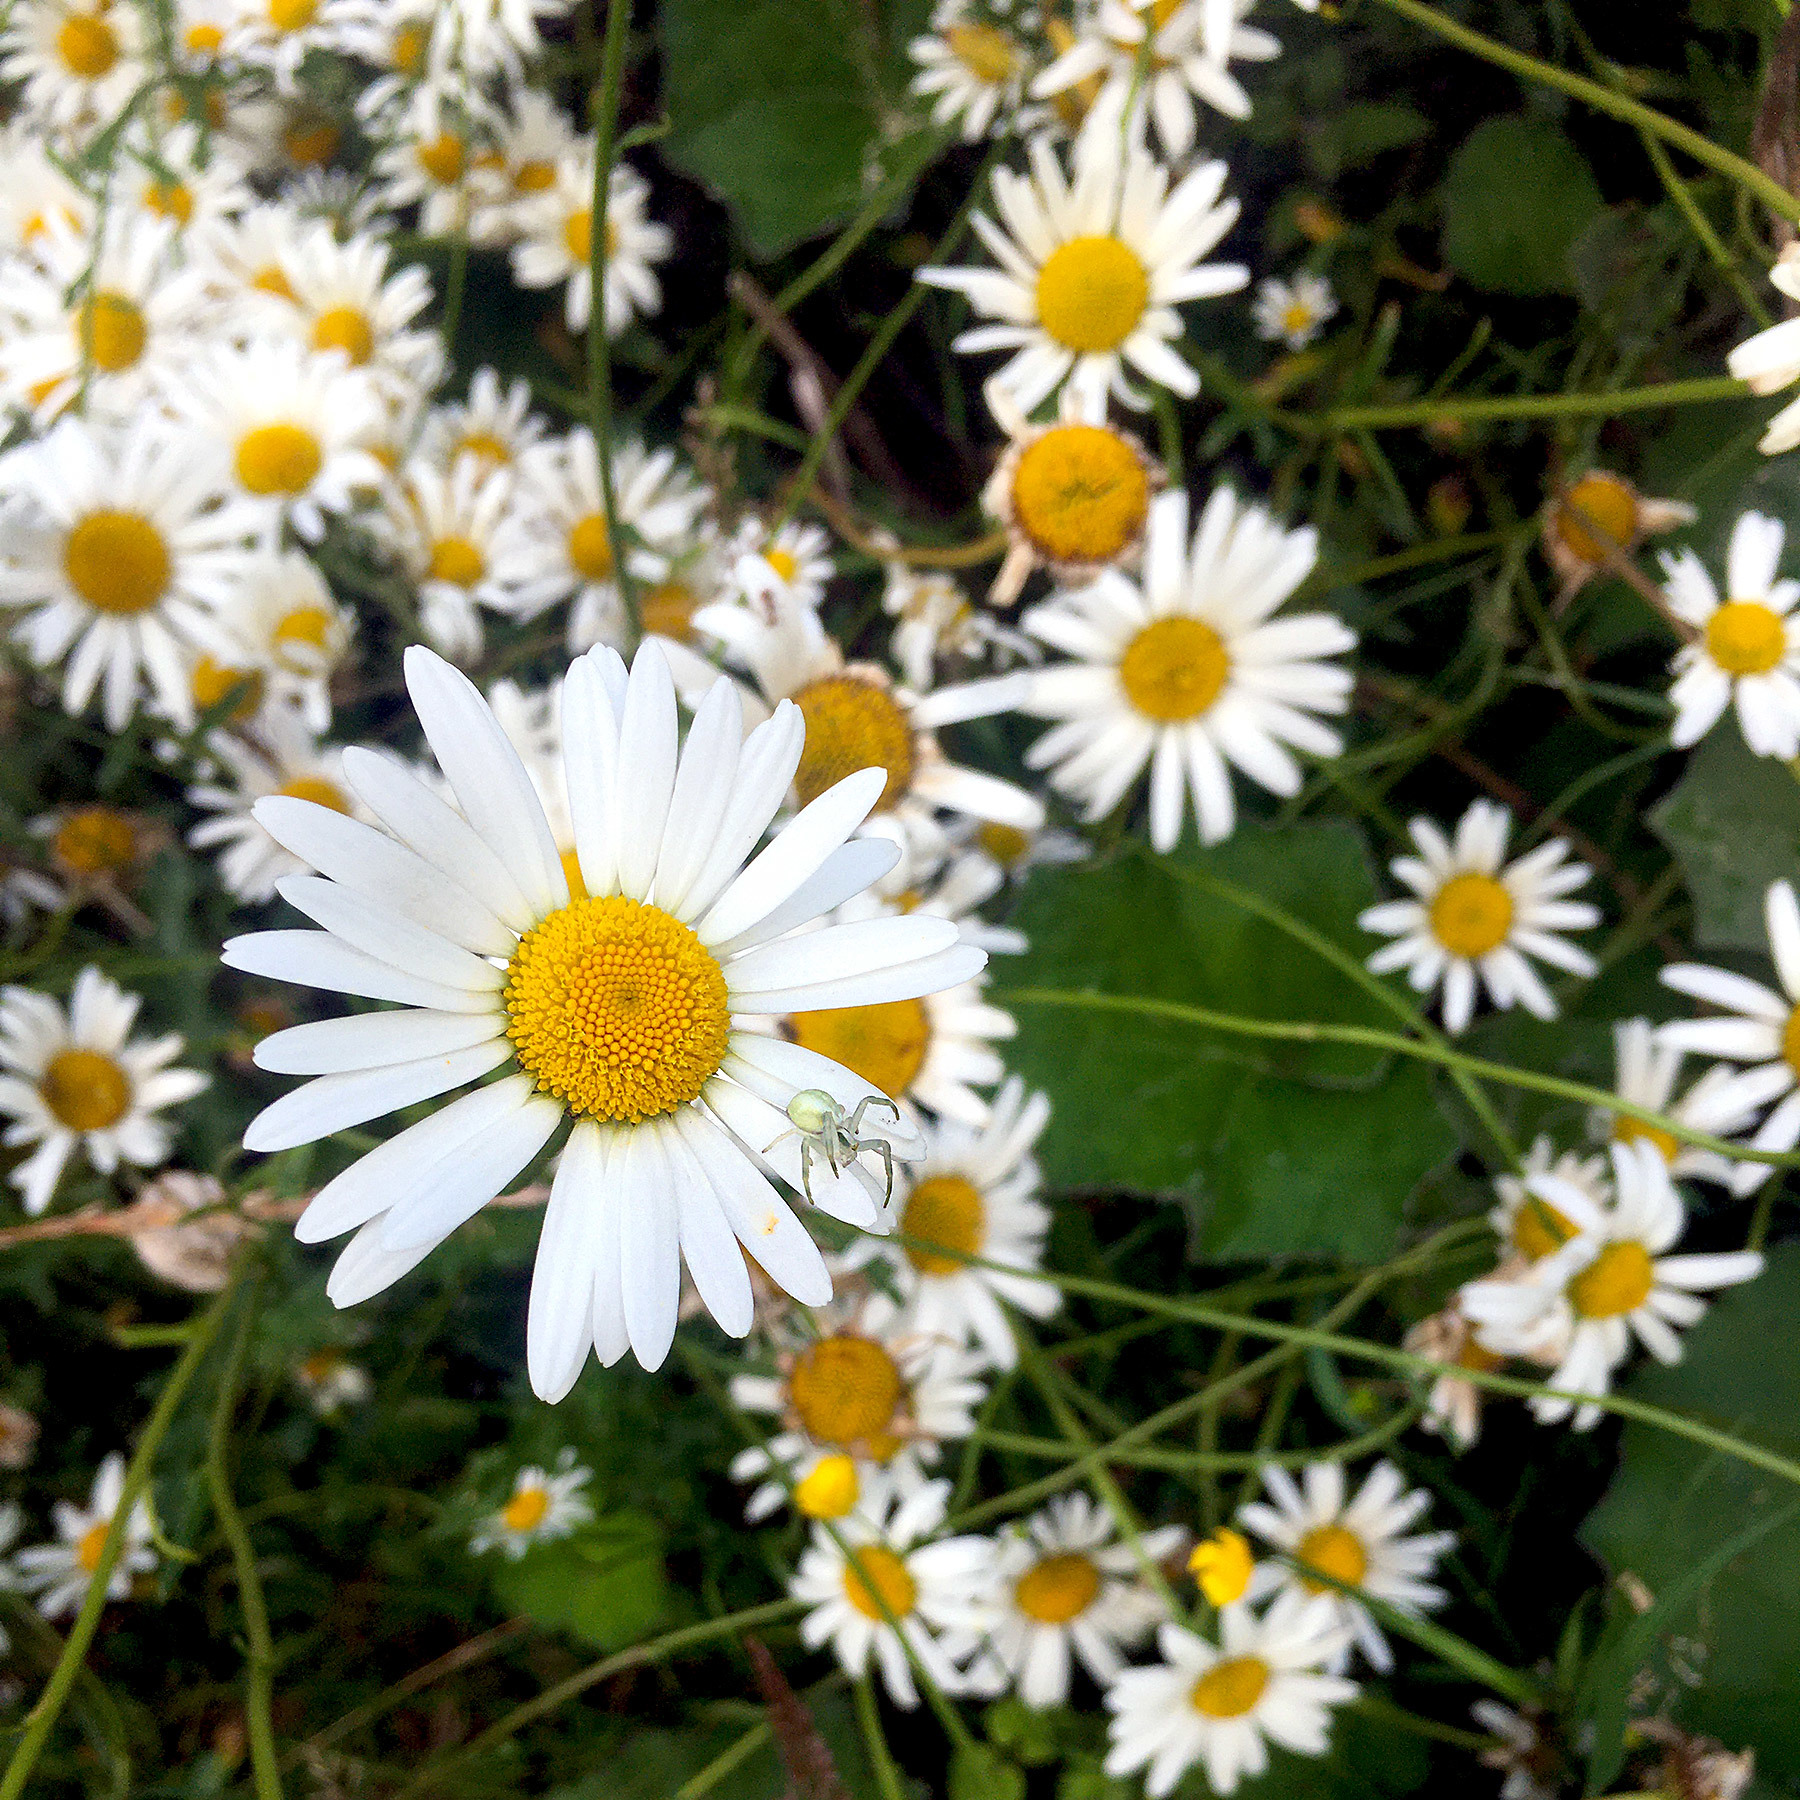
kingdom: Animalia
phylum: Arthropoda
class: Arachnida
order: Araneae
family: Thomisidae
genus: Misumena
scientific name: Misumena vatia
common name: Goldenrod crab spider
